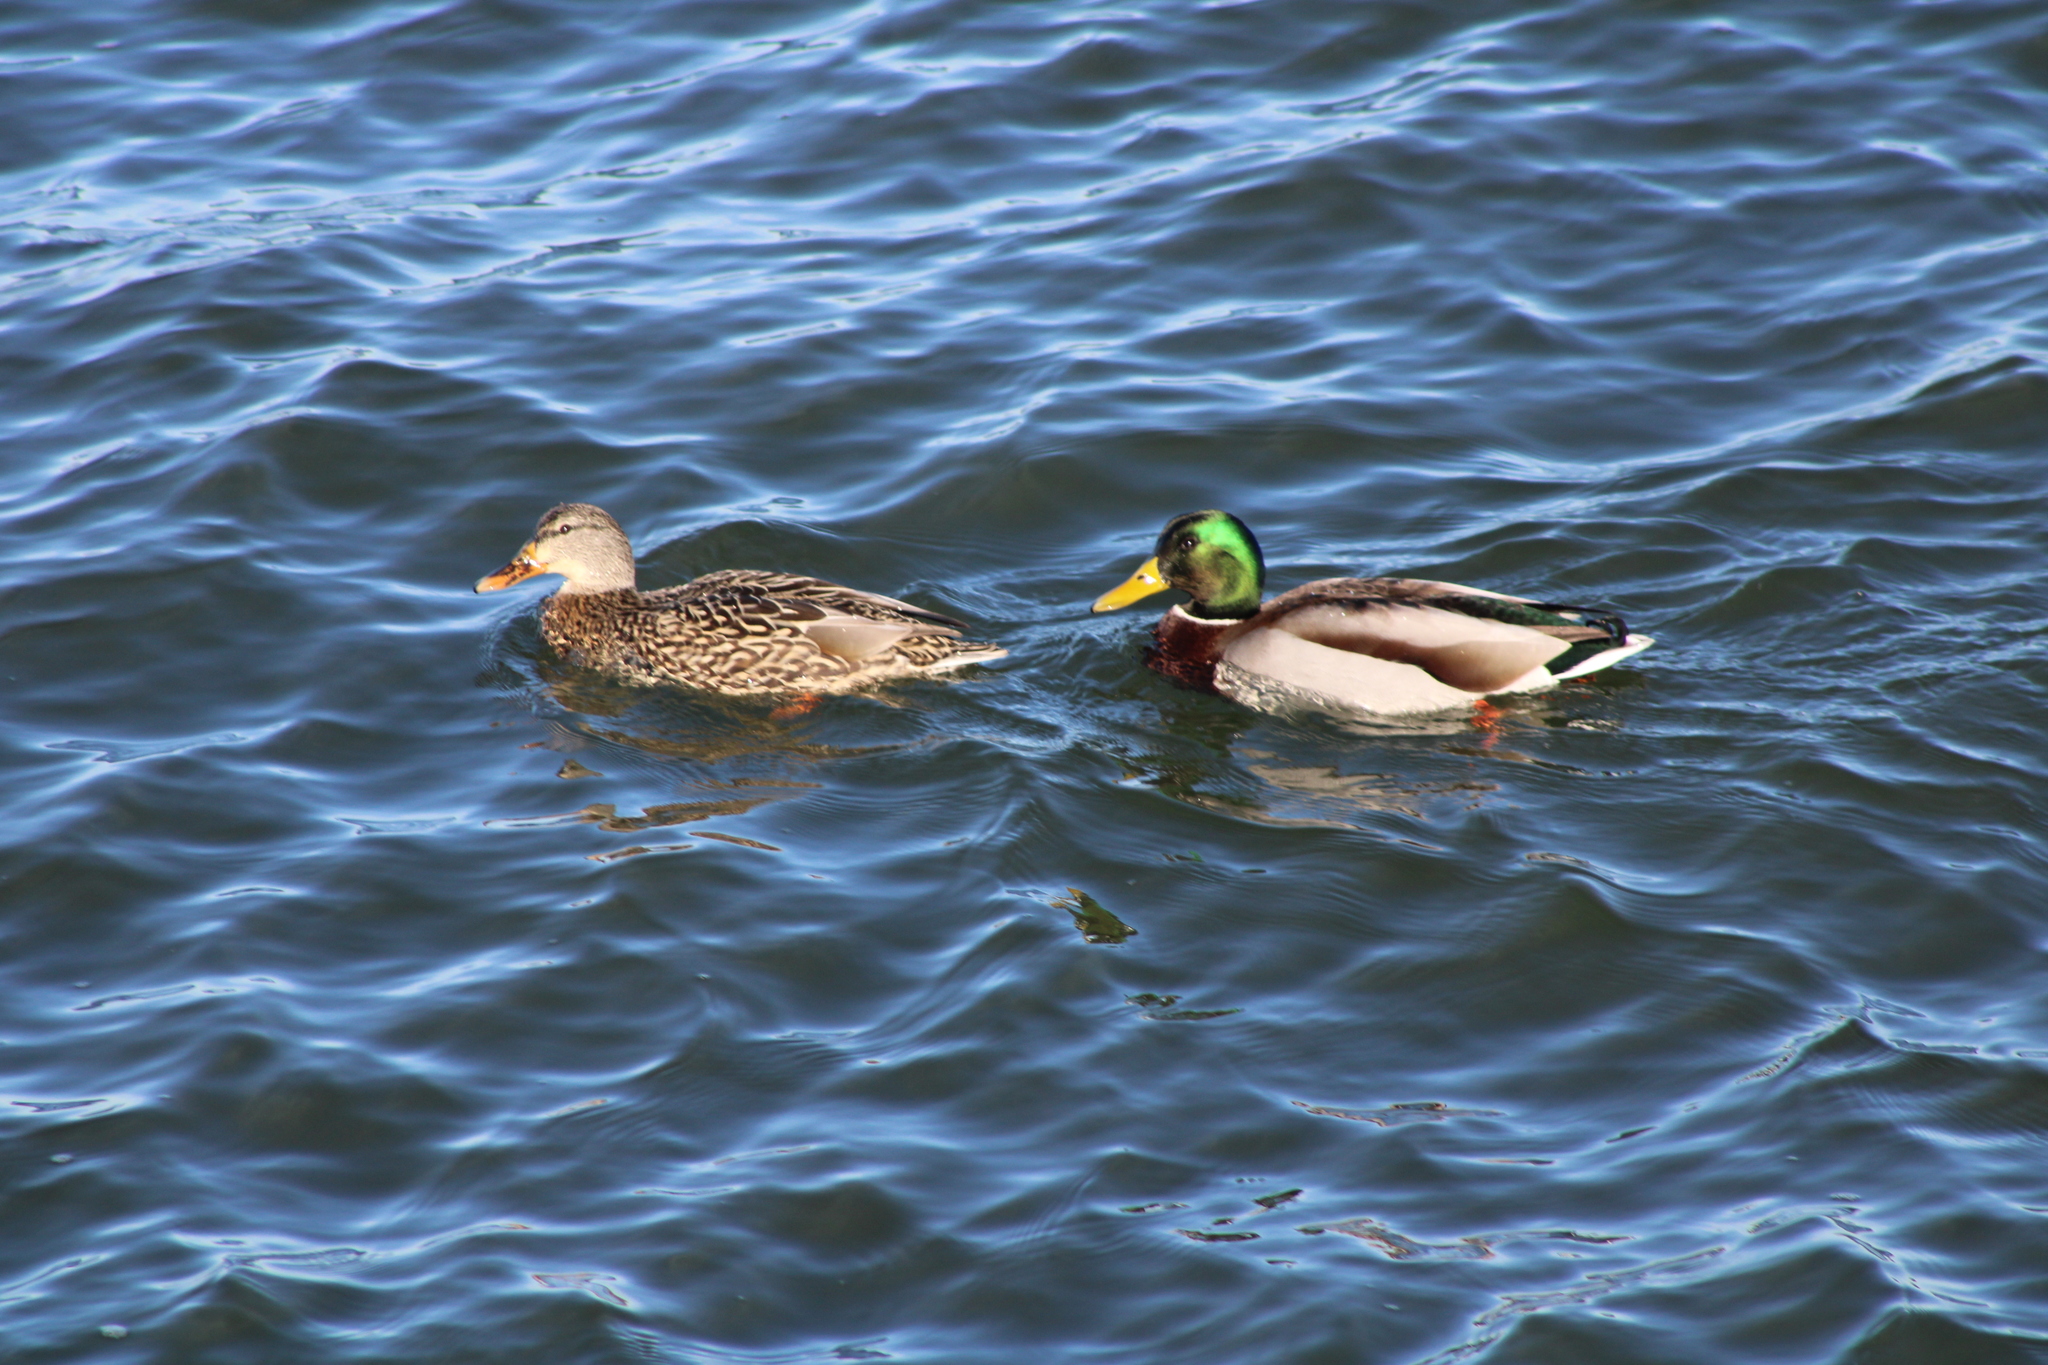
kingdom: Animalia
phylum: Chordata
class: Aves
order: Anseriformes
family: Anatidae
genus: Anas
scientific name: Anas platyrhynchos
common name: Mallard
